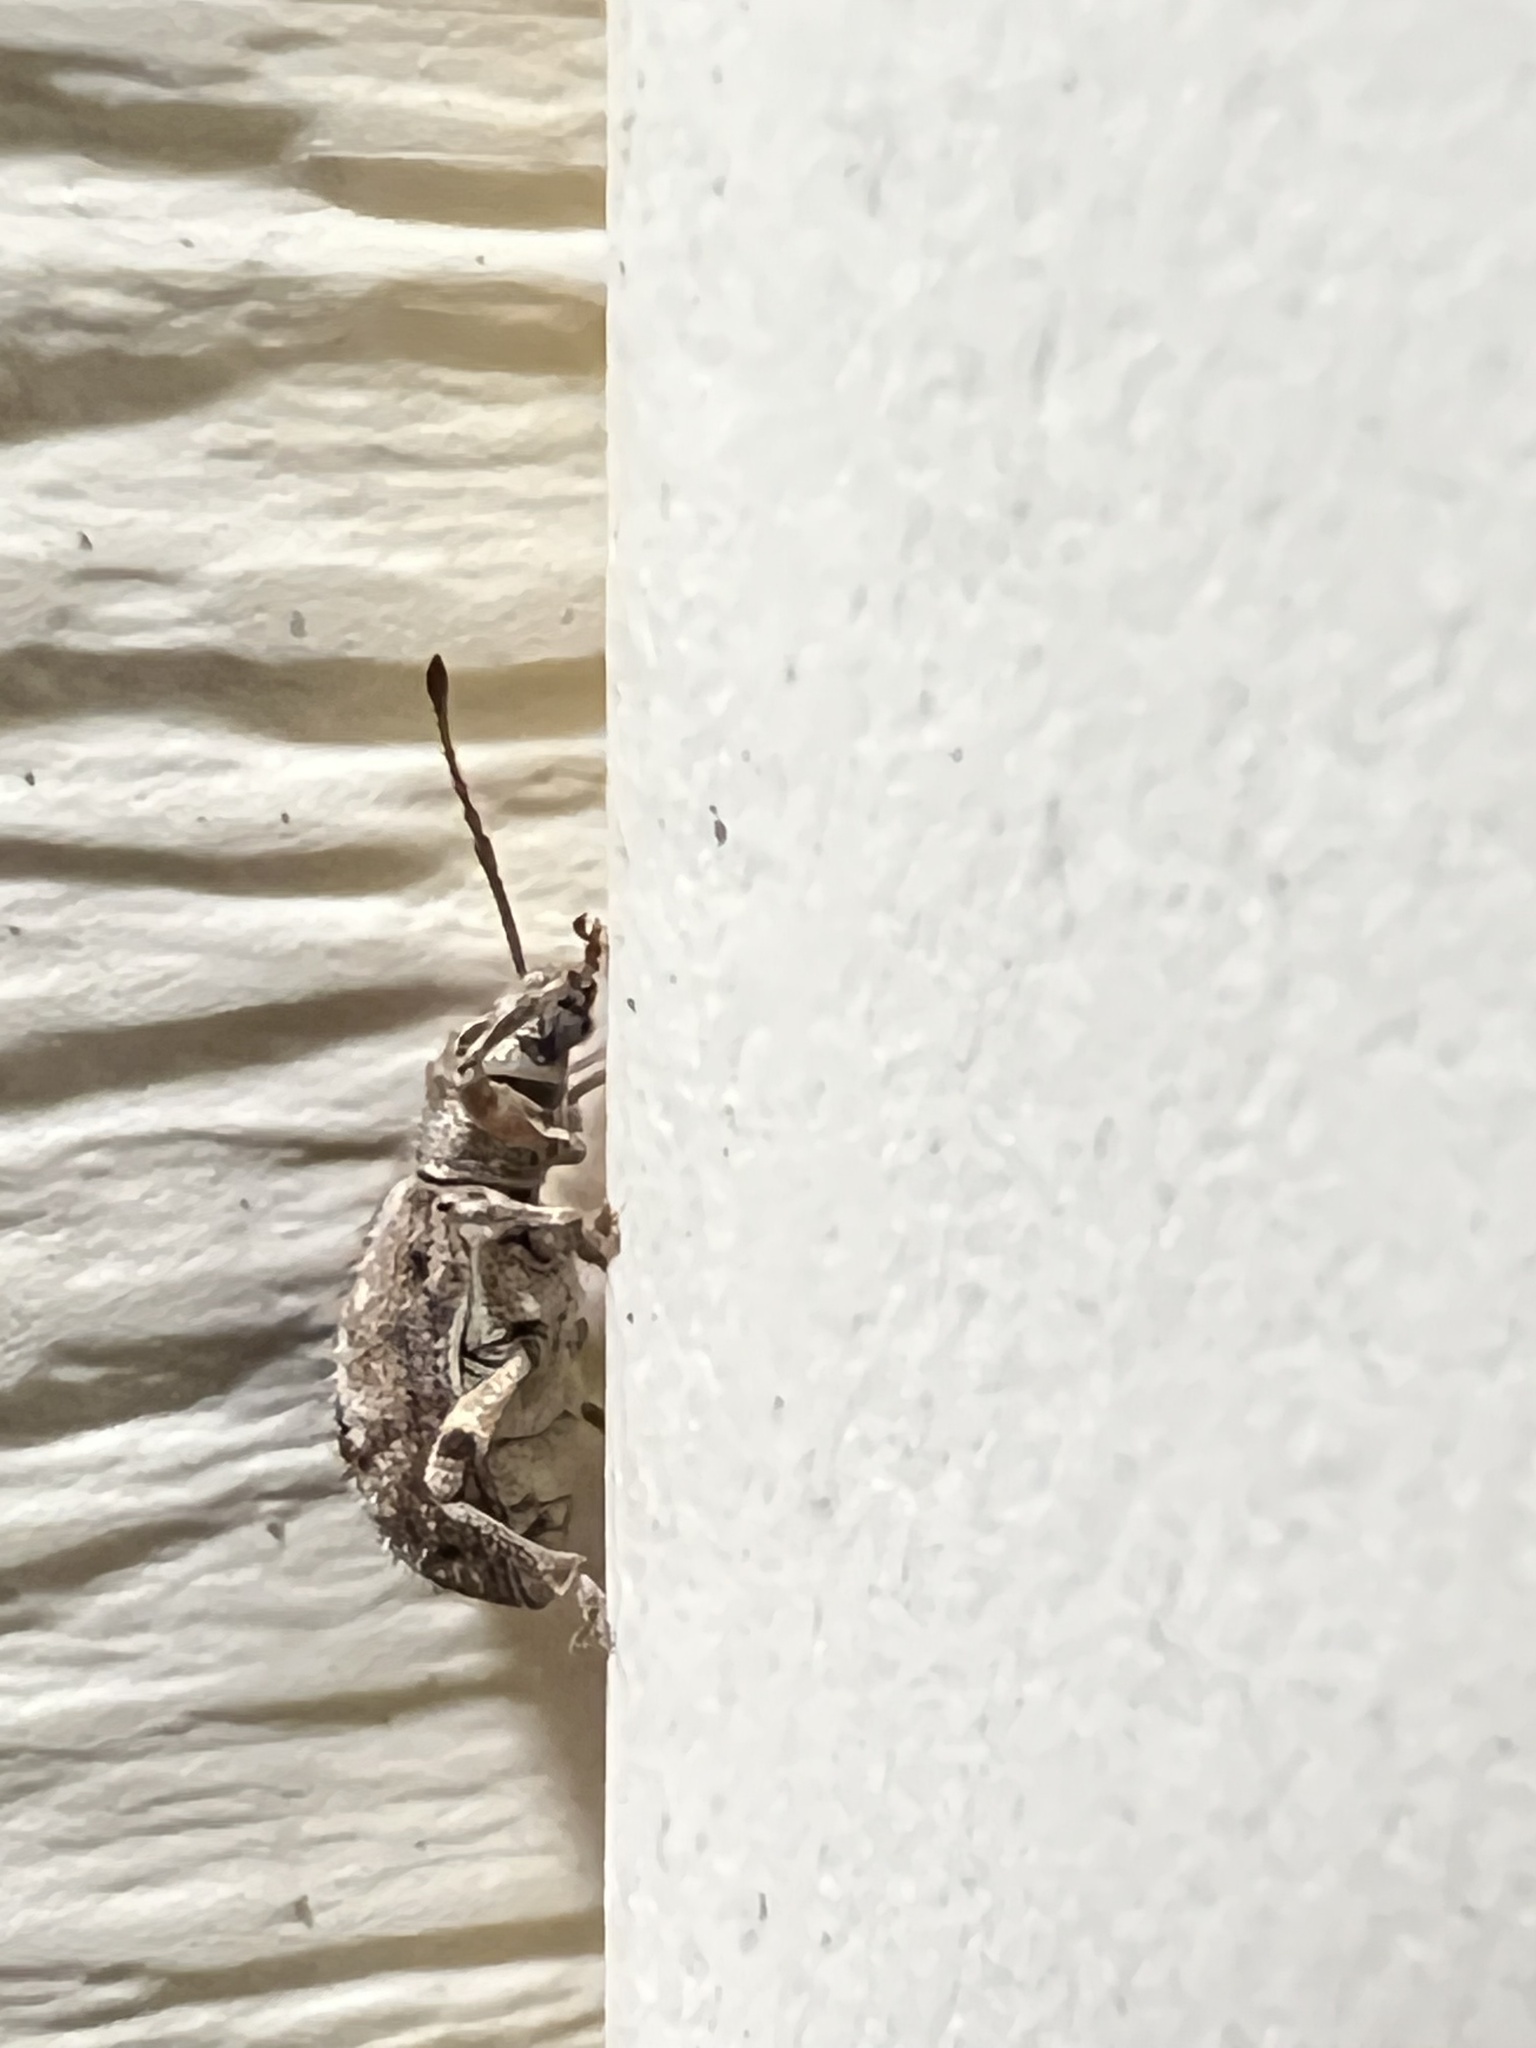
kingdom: Animalia
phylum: Arthropoda
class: Insecta
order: Coleoptera
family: Curculionidae
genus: Pseudoedophrys
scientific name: Pseudoedophrys hilleri
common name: Weevil
